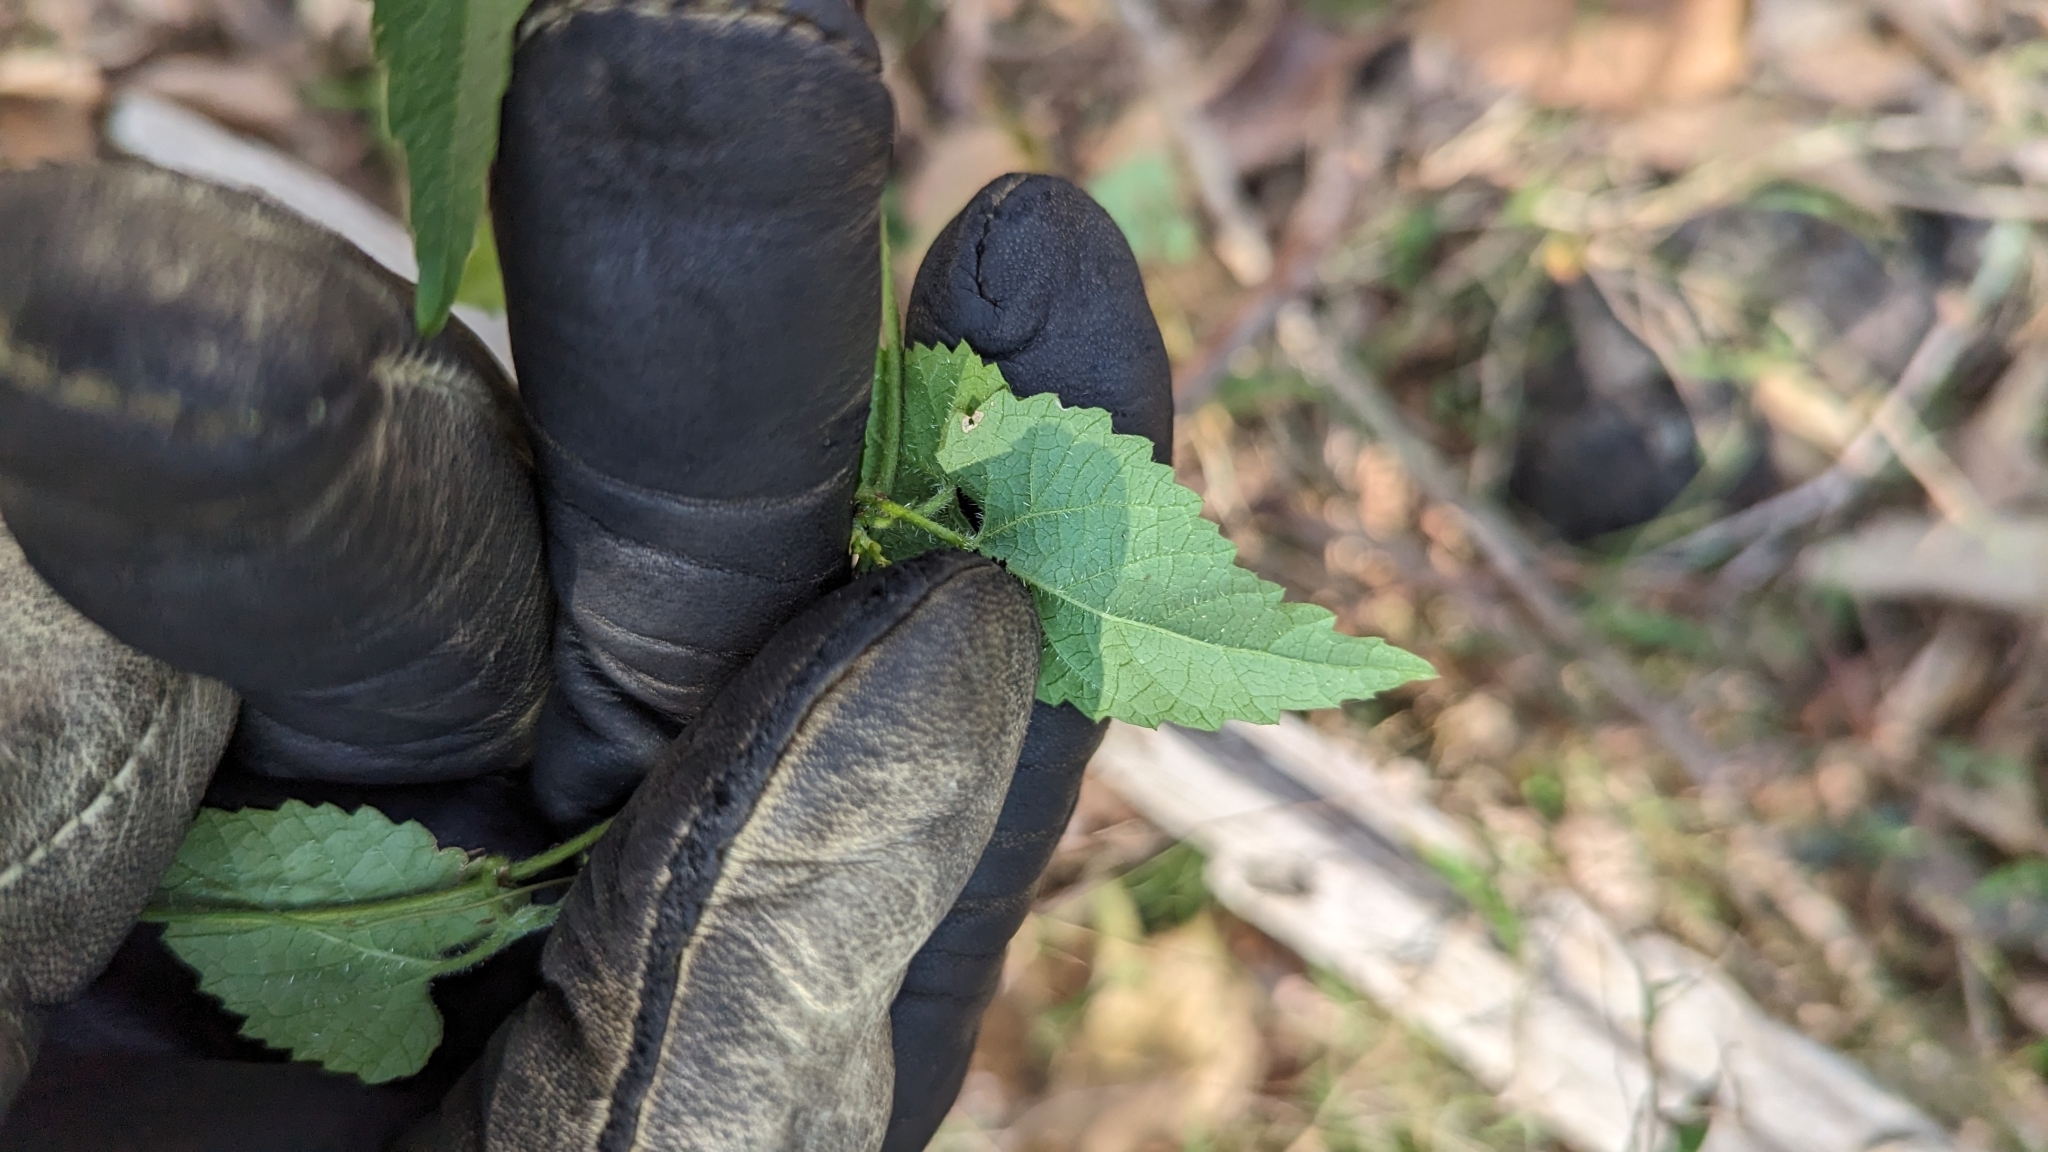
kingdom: Plantae
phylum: Tracheophyta
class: Magnoliopsida
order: Malpighiales
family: Euphorbiaceae
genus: Tragia
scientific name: Tragia novae-hollandiae
